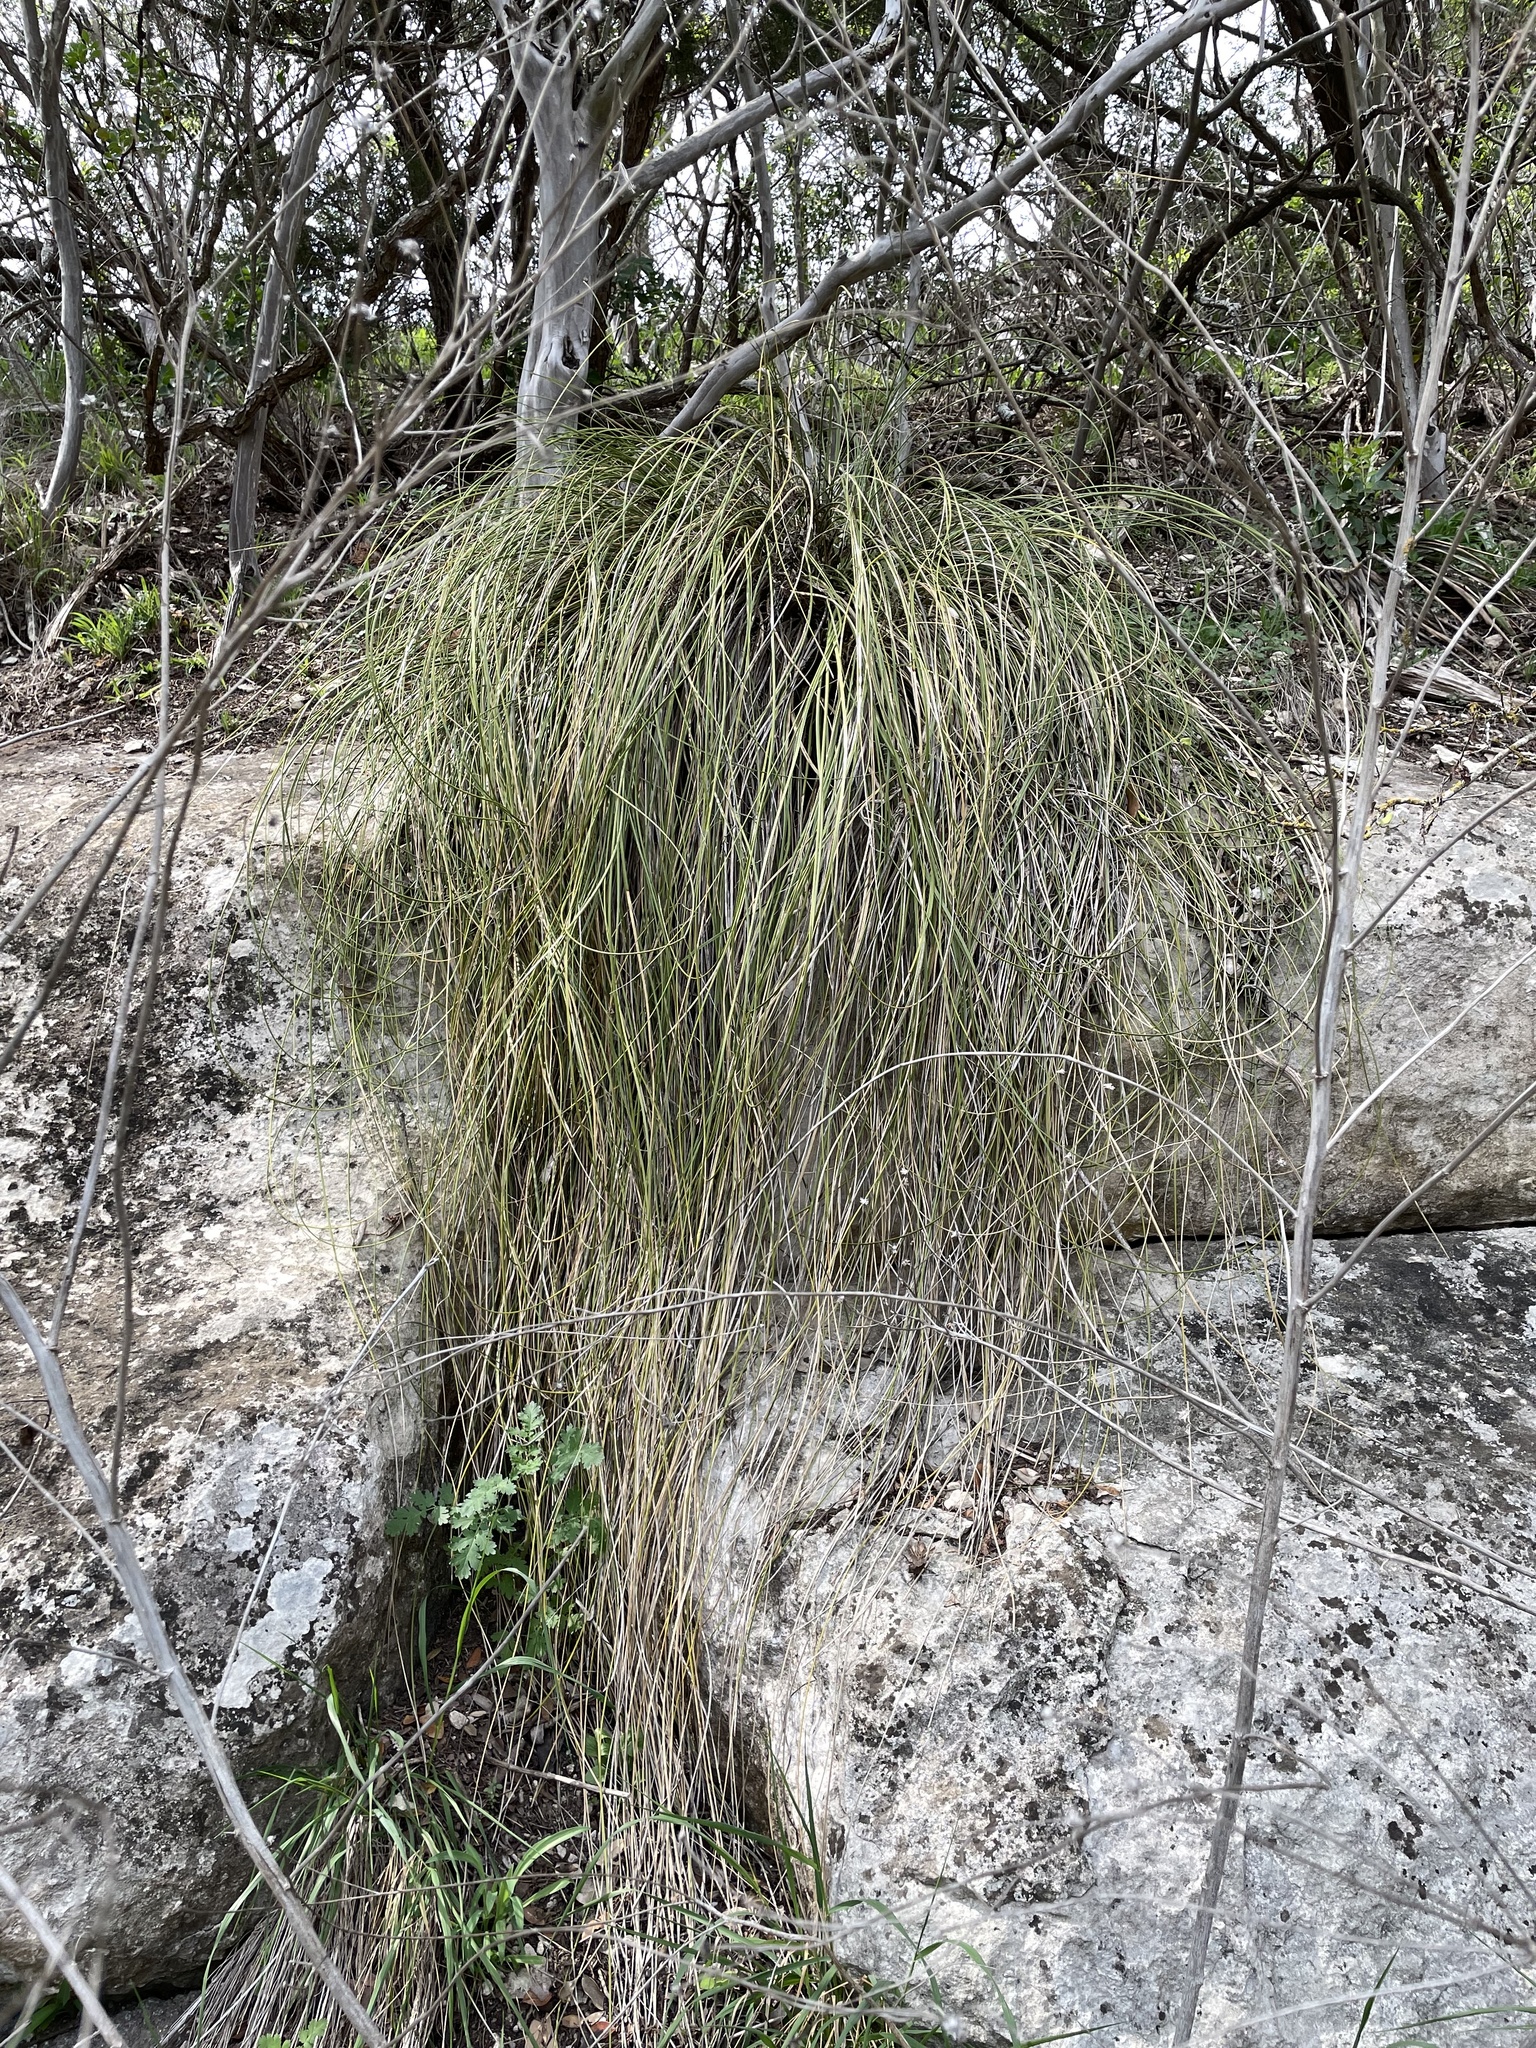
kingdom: Plantae
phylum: Tracheophyta
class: Liliopsida
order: Asparagales
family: Asparagaceae
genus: Nolina
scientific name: Nolina texana
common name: Texas sacahuiste
